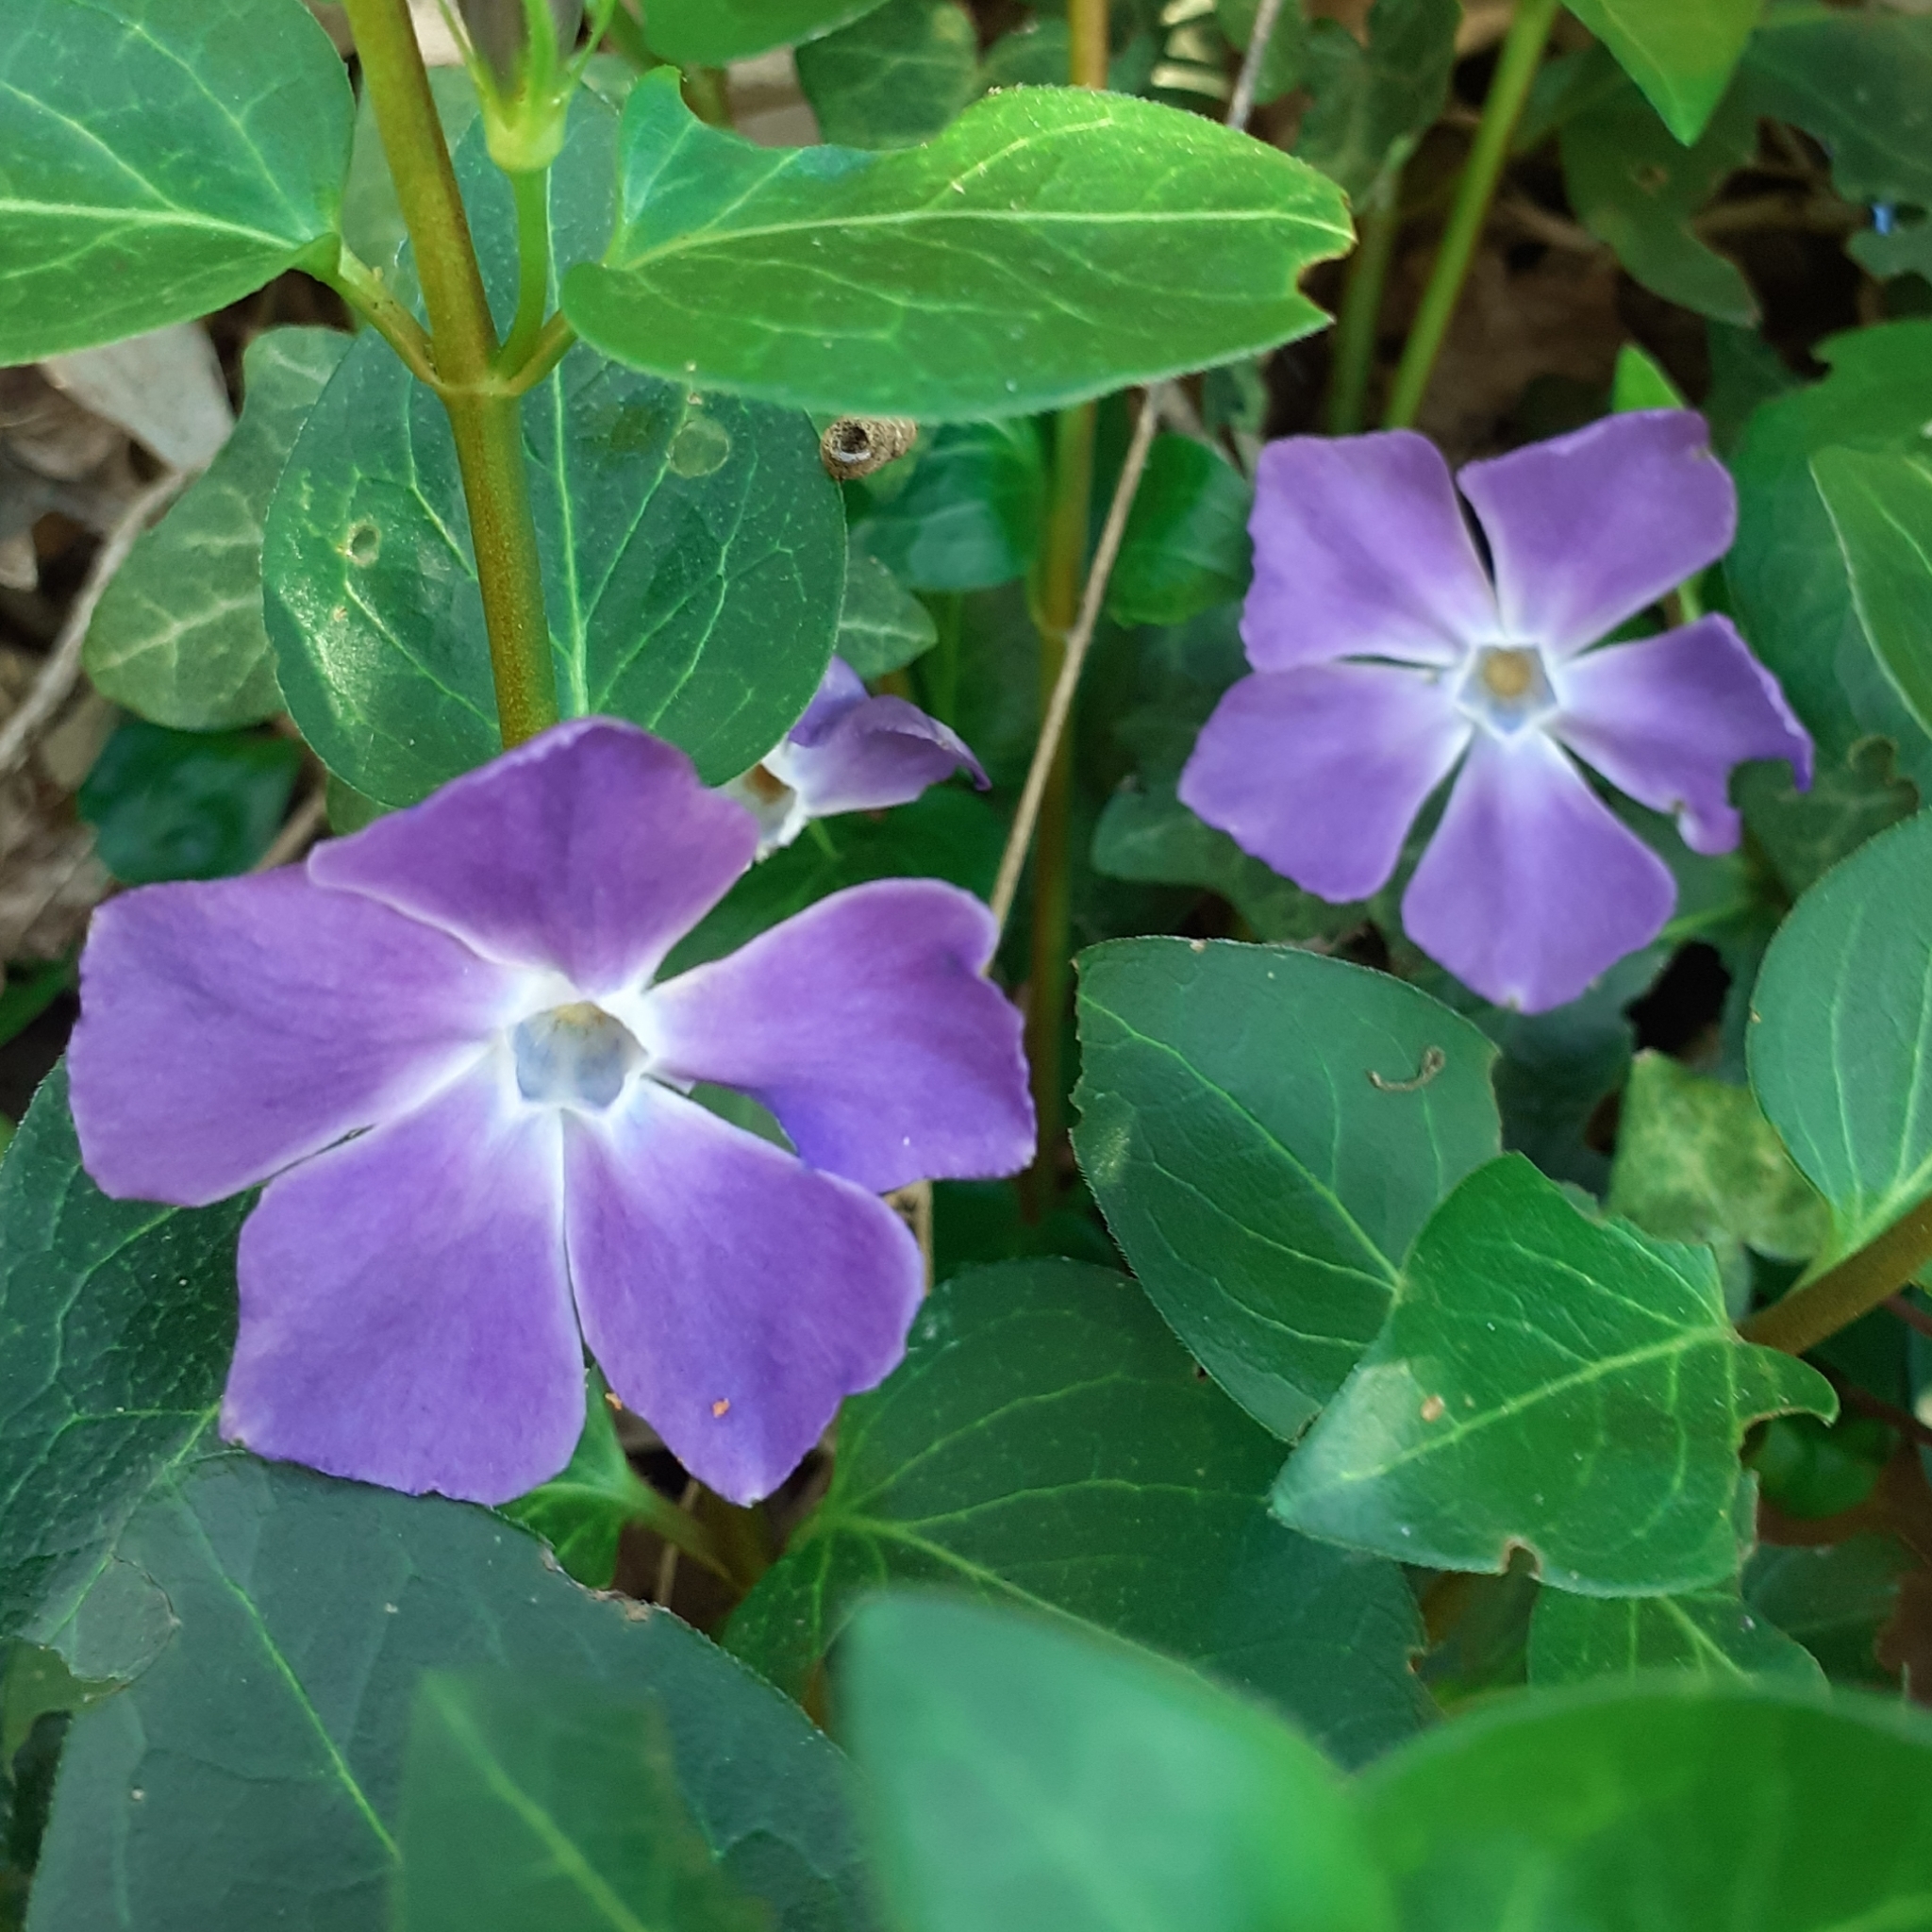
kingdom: Plantae
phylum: Tracheophyta
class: Magnoliopsida
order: Gentianales
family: Apocynaceae
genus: Vinca
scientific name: Vinca major
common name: Greater periwinkle
